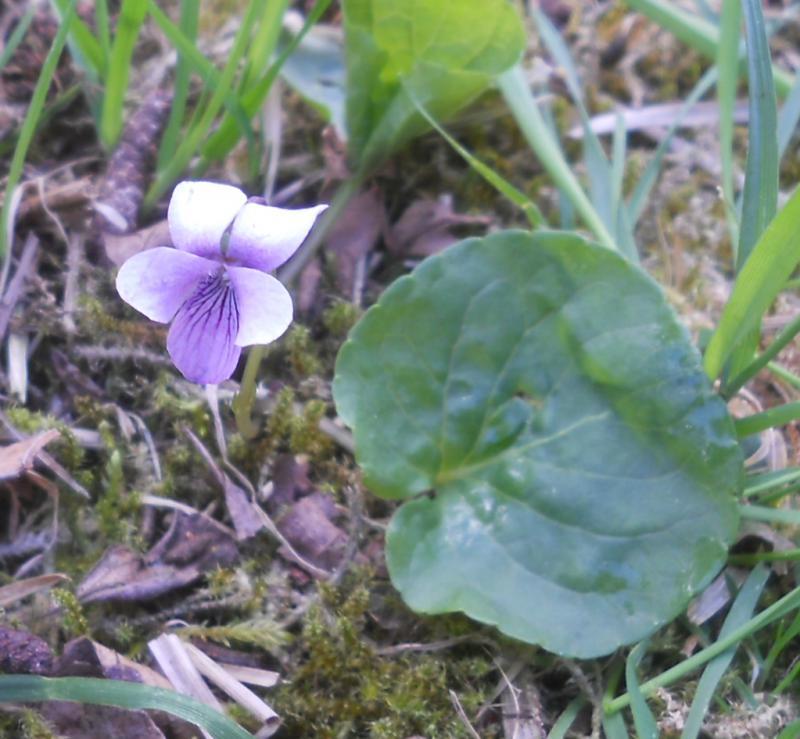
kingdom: Plantae
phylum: Tracheophyta
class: Magnoliopsida
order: Malpighiales
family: Violaceae
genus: Viola
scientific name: Viola palustris
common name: Marsh violet
